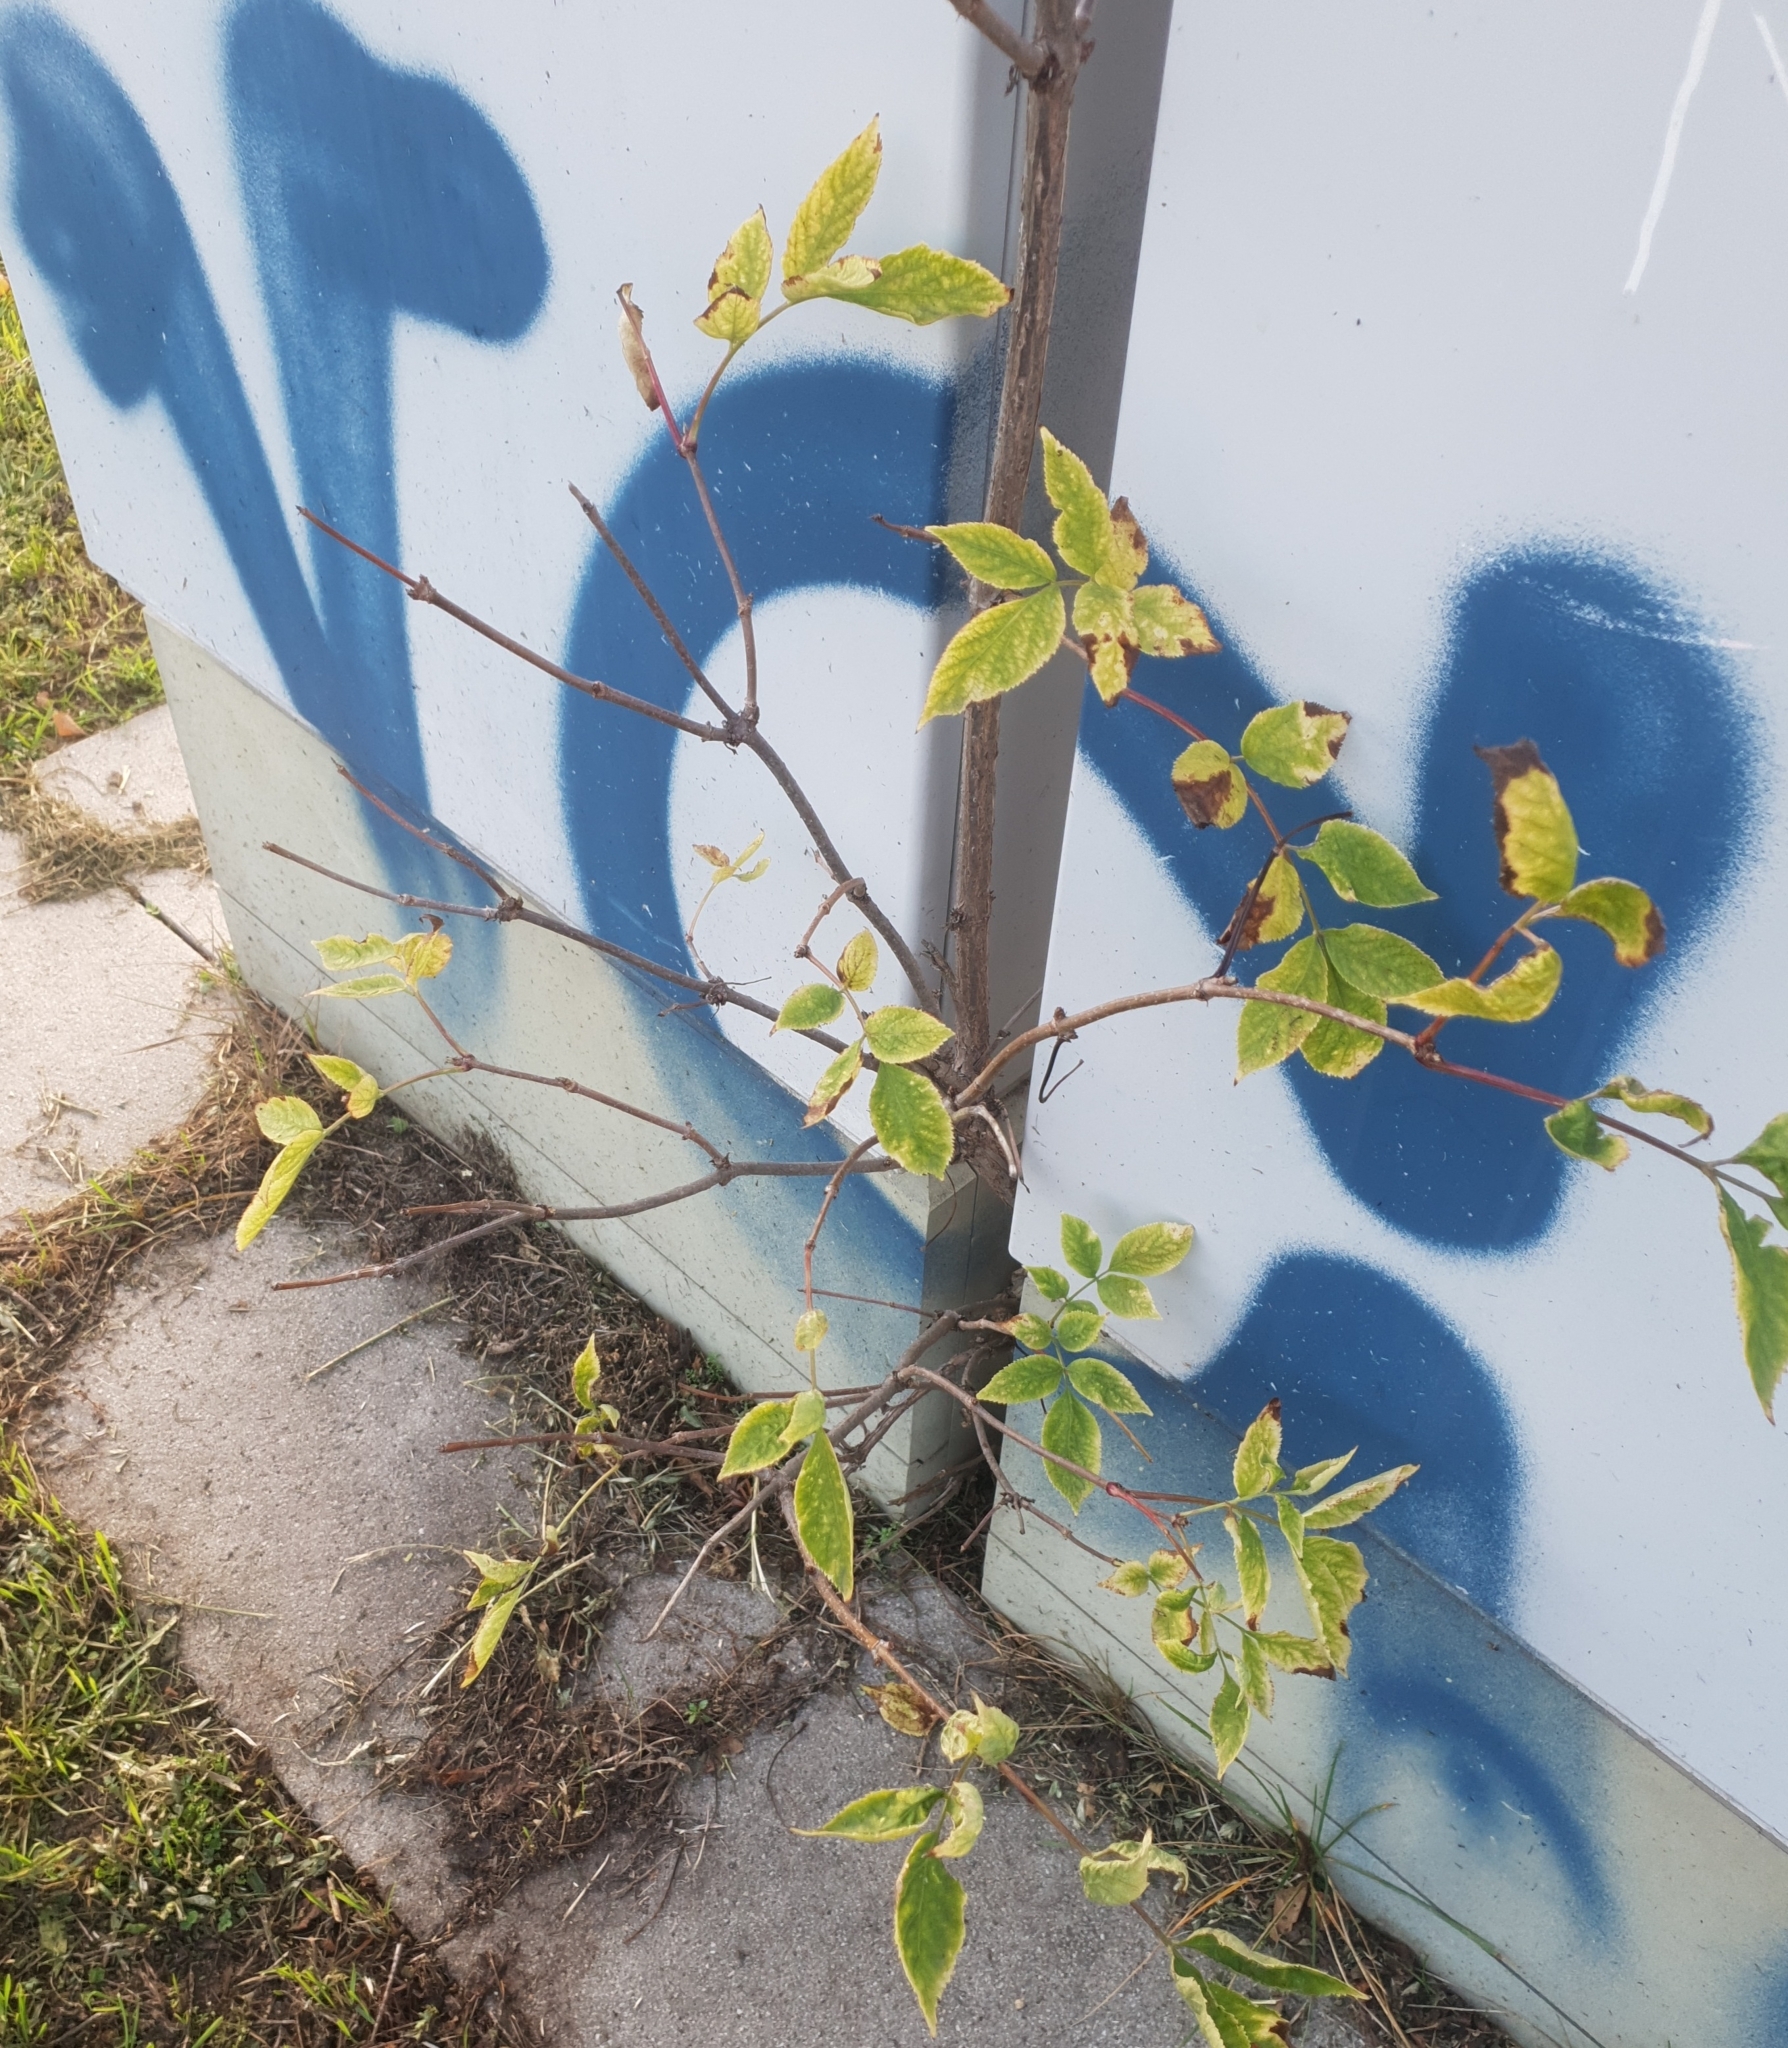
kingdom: Plantae
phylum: Tracheophyta
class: Magnoliopsida
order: Dipsacales
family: Viburnaceae
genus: Sambucus
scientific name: Sambucus nigra
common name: Elder
